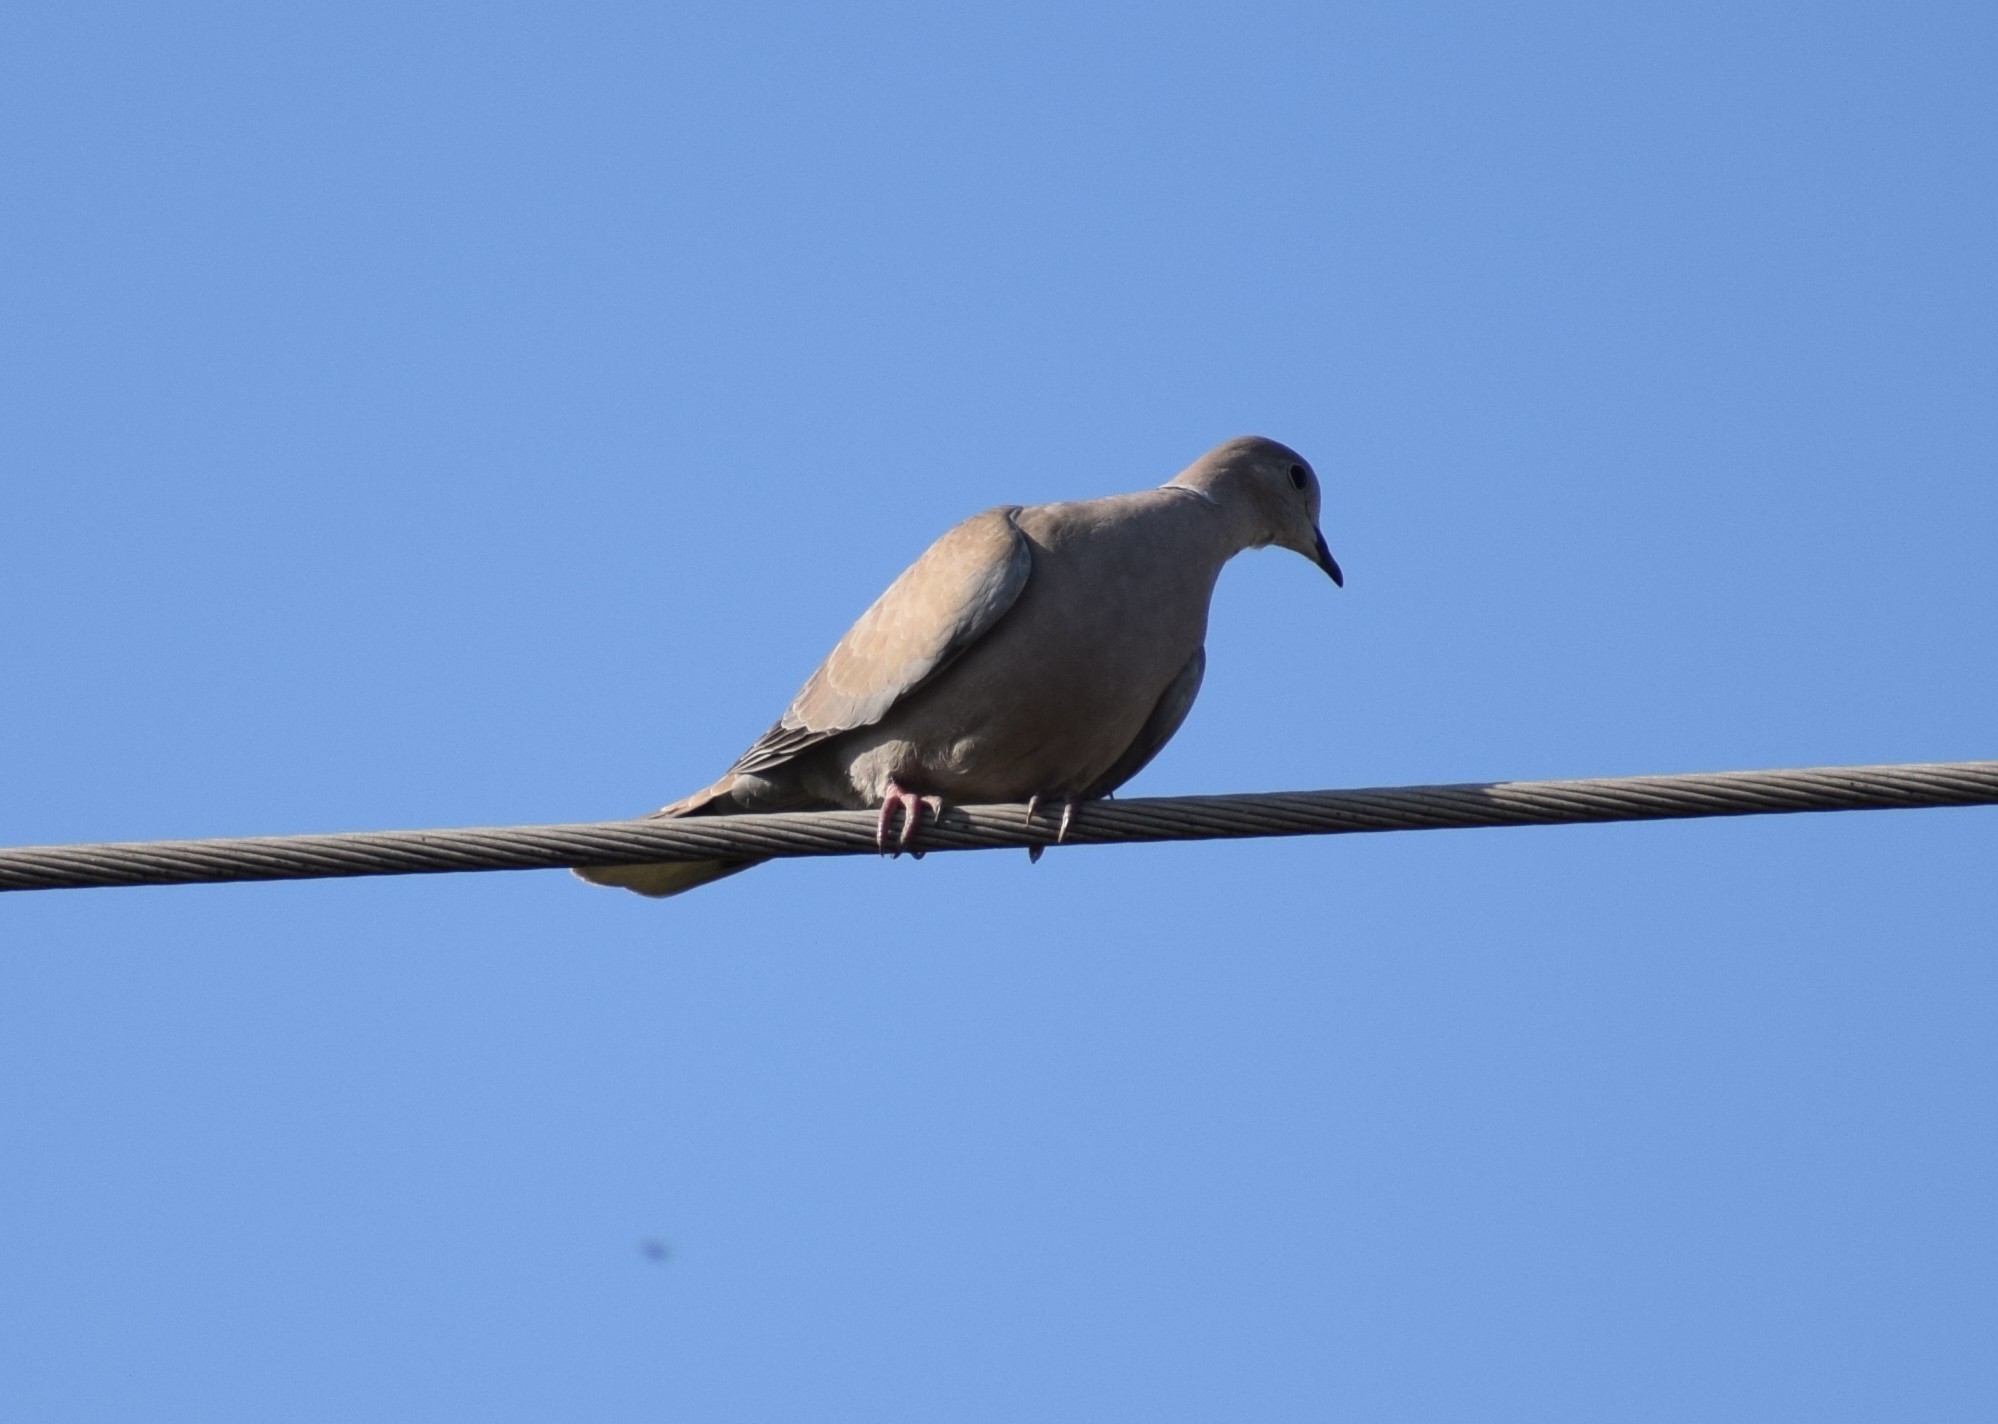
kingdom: Animalia
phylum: Chordata
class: Aves
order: Columbiformes
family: Columbidae
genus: Streptopelia
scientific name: Streptopelia decaocto
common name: Eurasian collared dove
